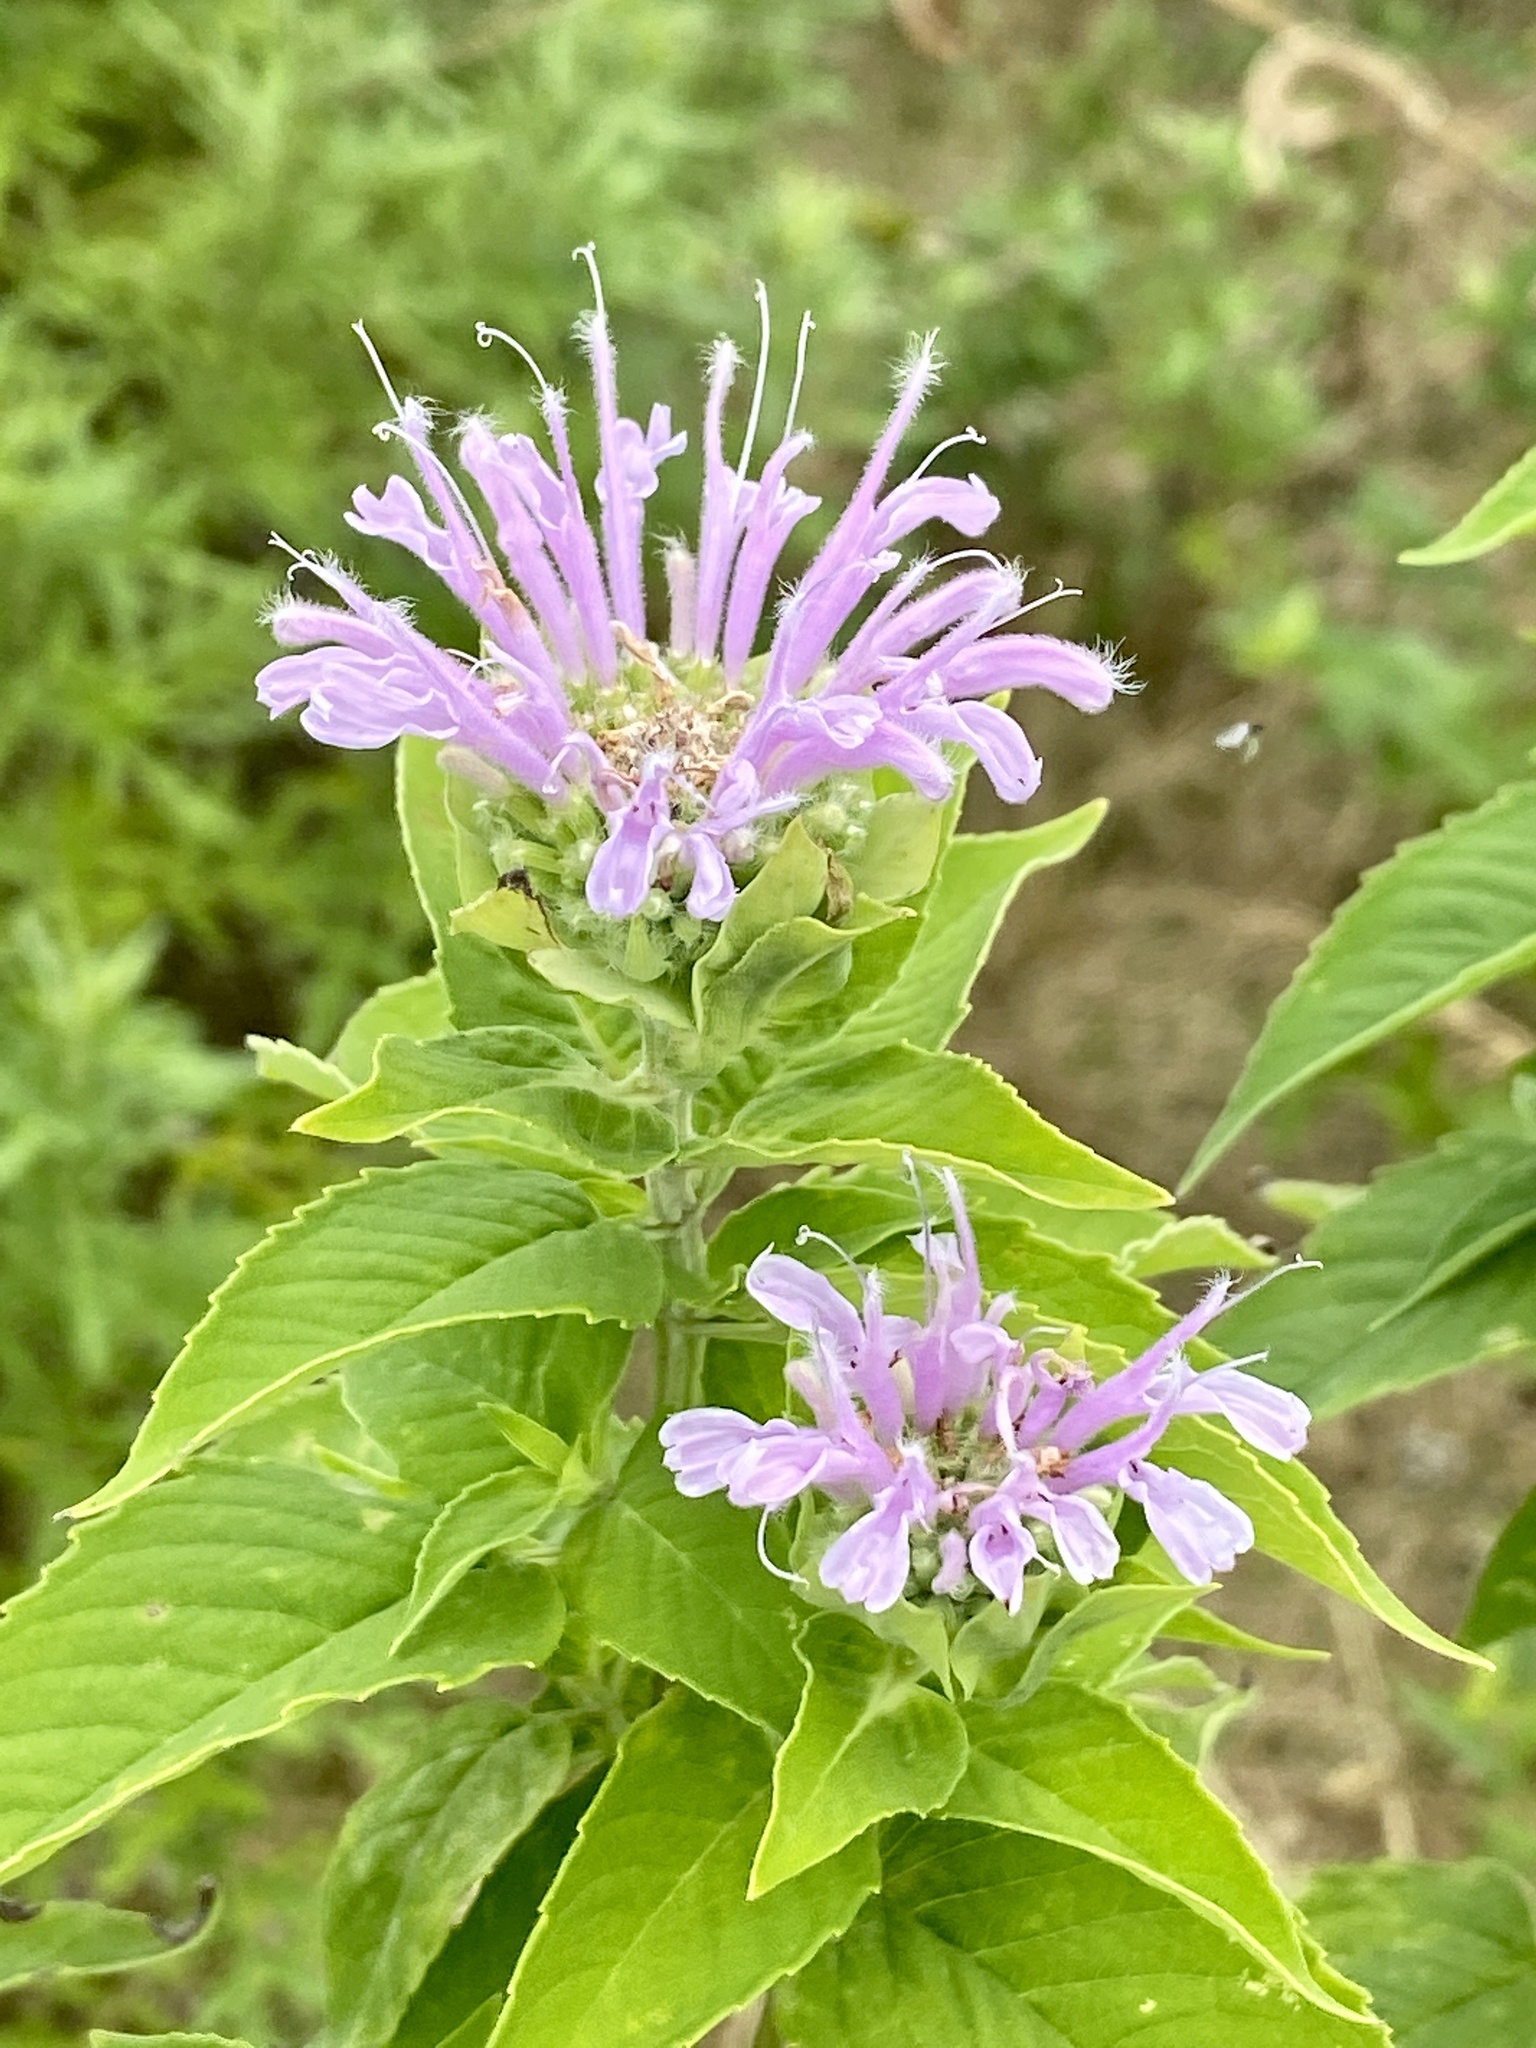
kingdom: Plantae
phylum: Tracheophyta
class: Magnoliopsida
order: Lamiales
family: Lamiaceae
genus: Monarda
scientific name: Monarda fistulosa
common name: Purple beebalm
